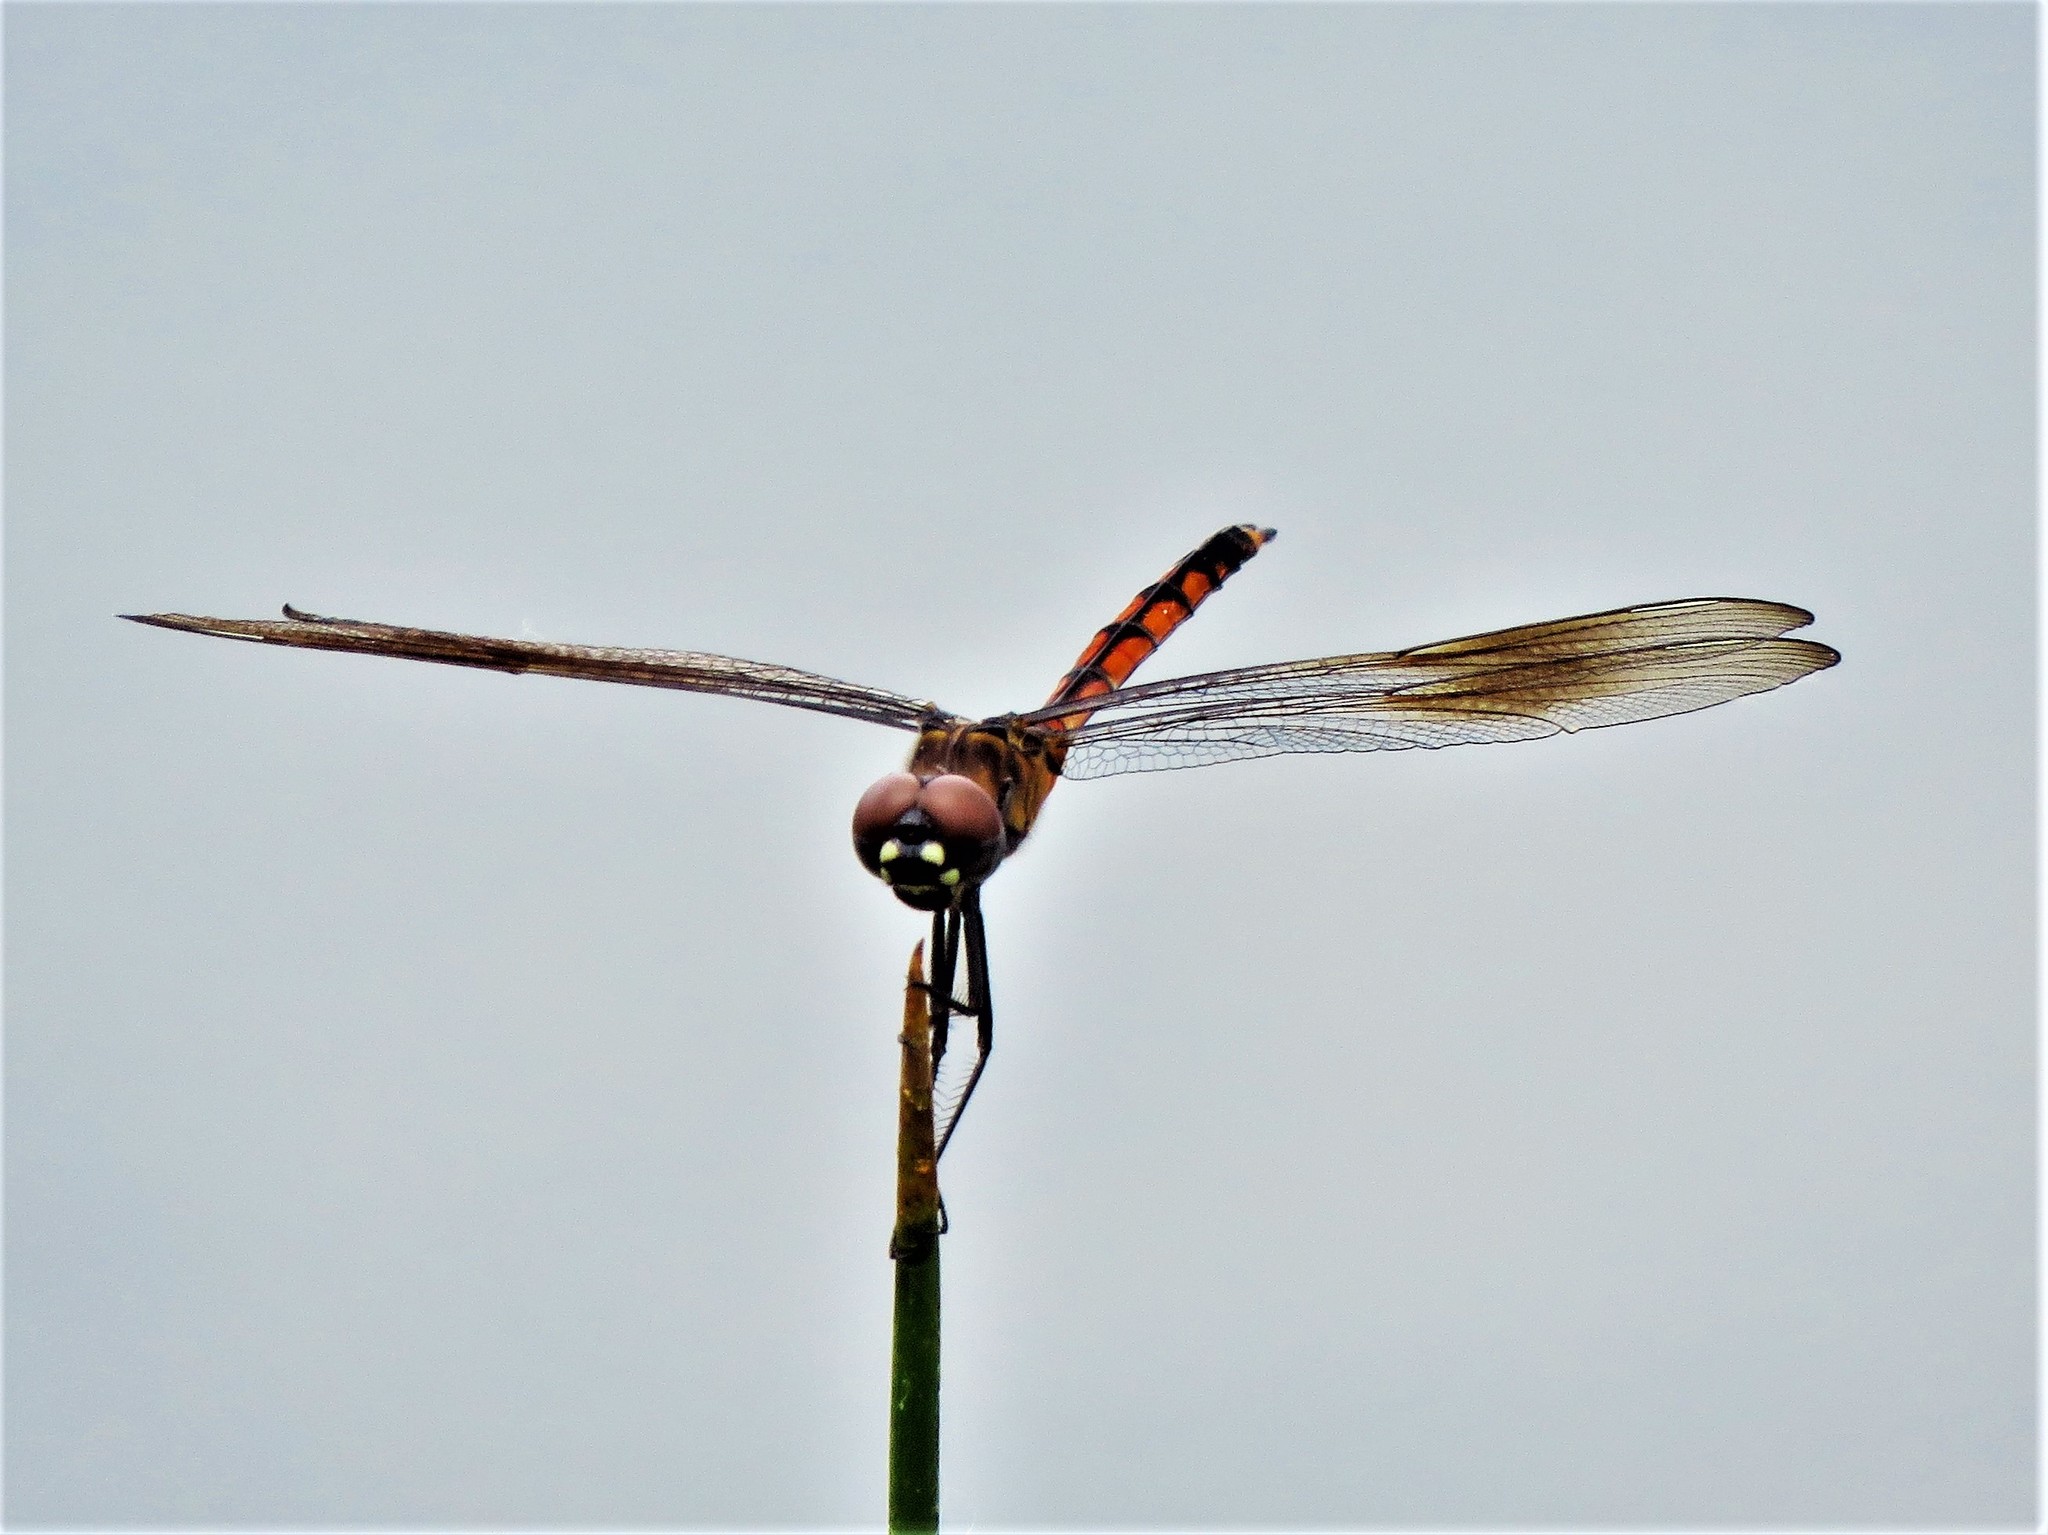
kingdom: Animalia
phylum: Arthropoda
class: Insecta
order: Odonata
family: Libellulidae
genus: Brachymesia
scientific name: Brachymesia gravida
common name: Four-spotted pennant
